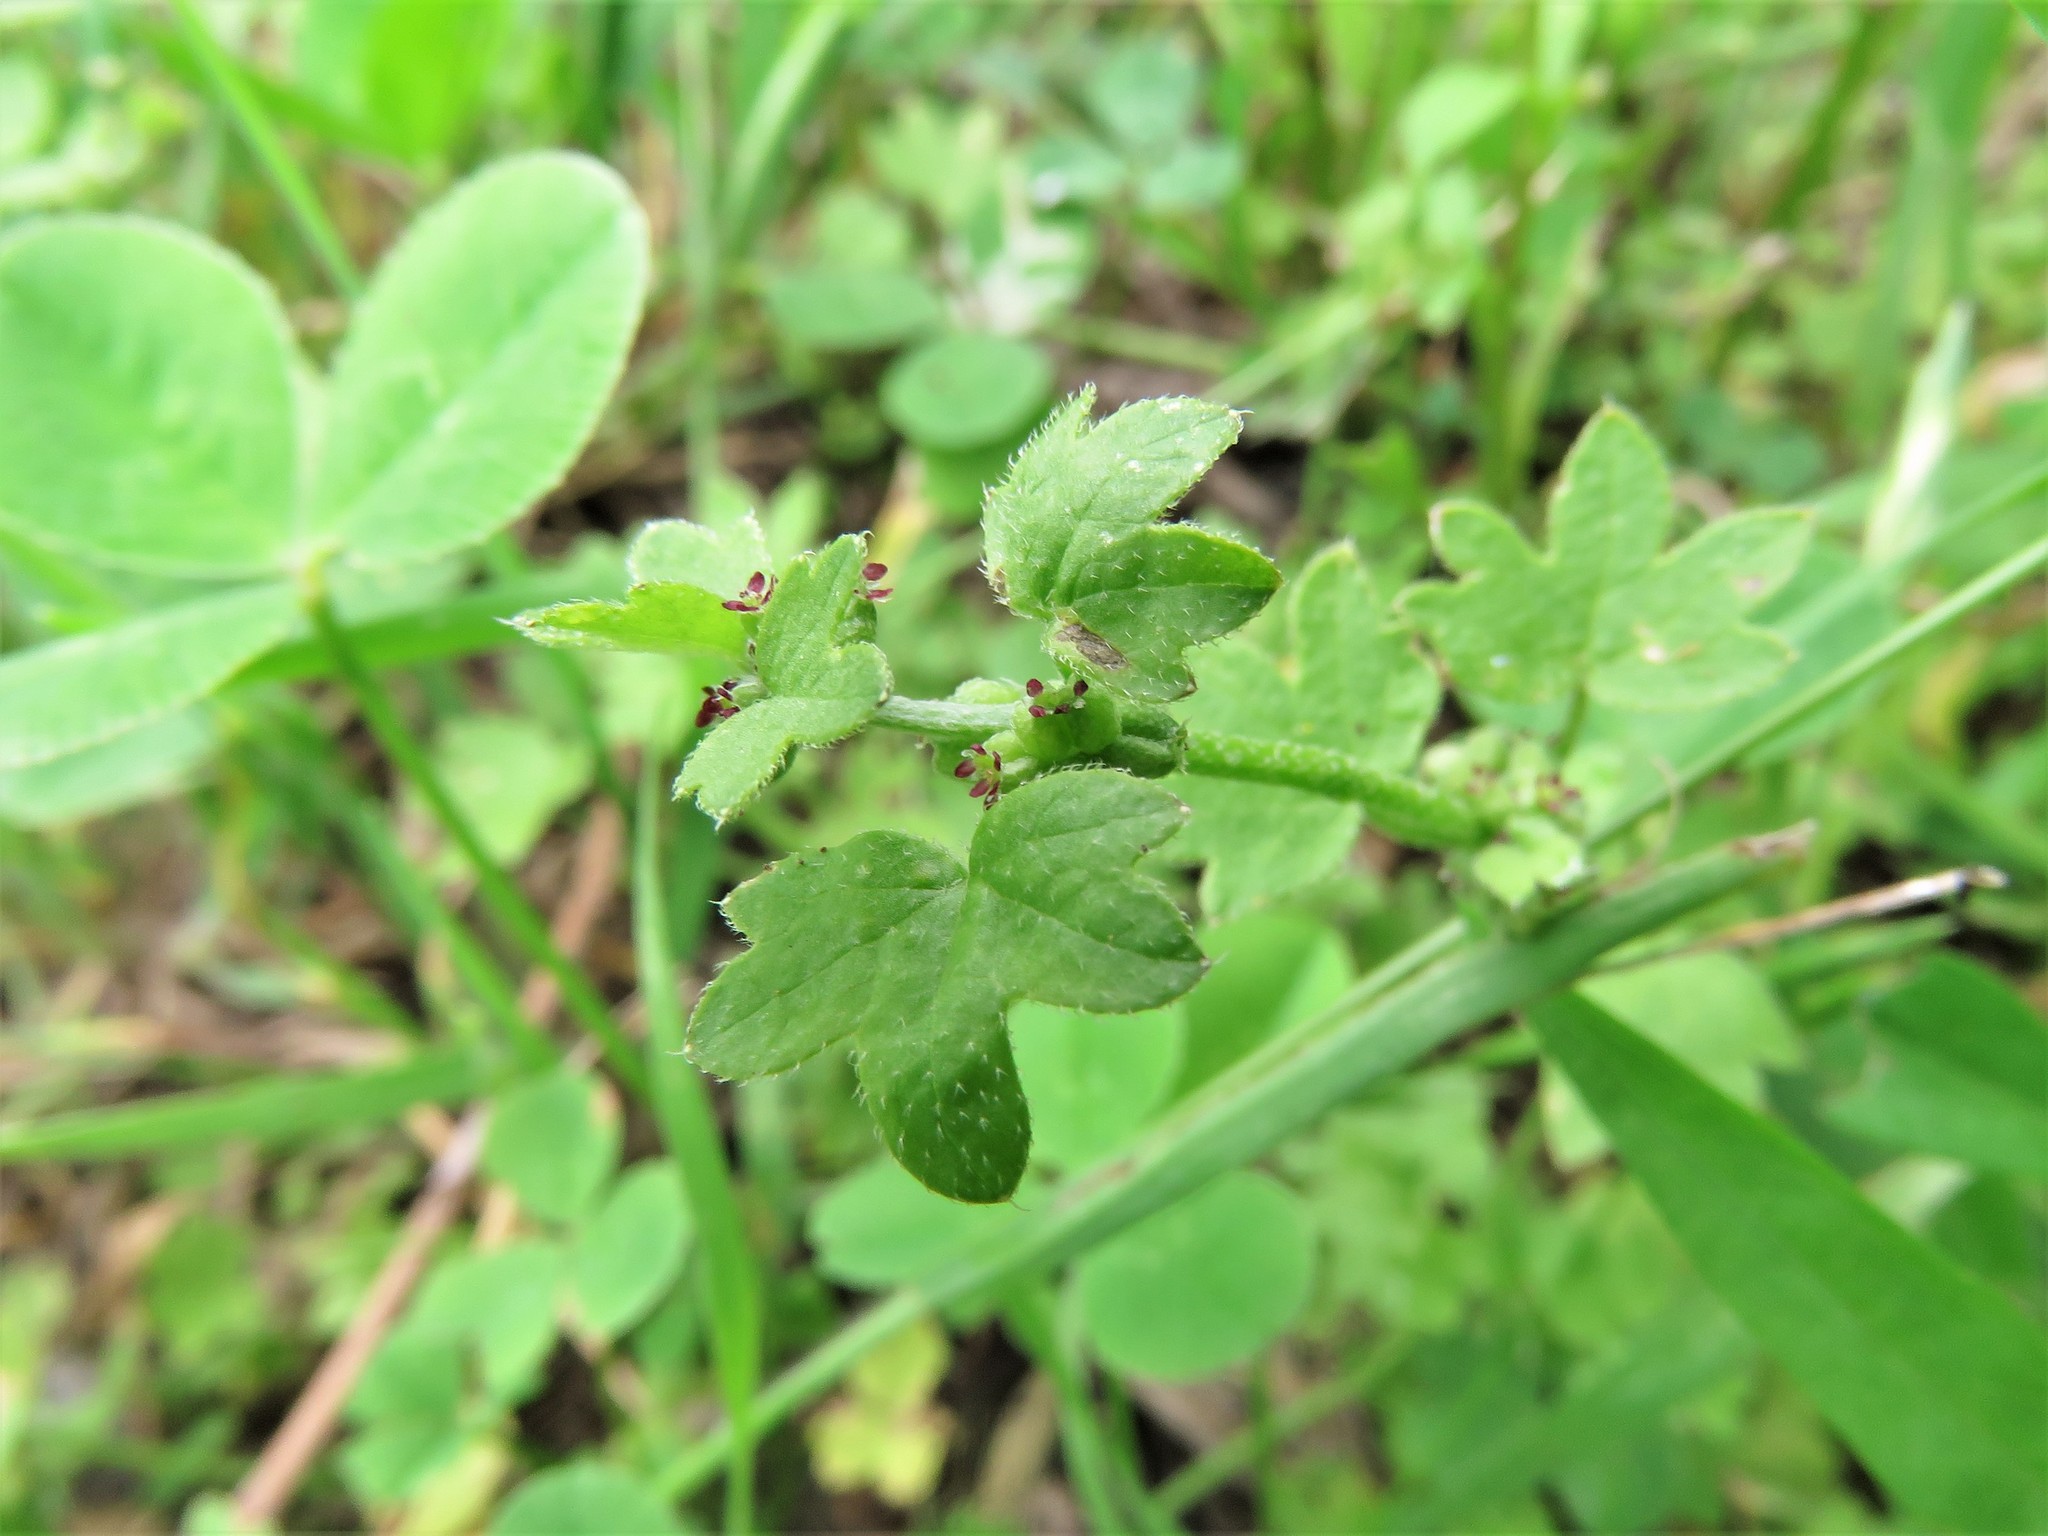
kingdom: Plantae
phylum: Tracheophyta
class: Magnoliopsida
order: Apiales
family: Apiaceae
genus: Bowlesia
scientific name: Bowlesia incana
